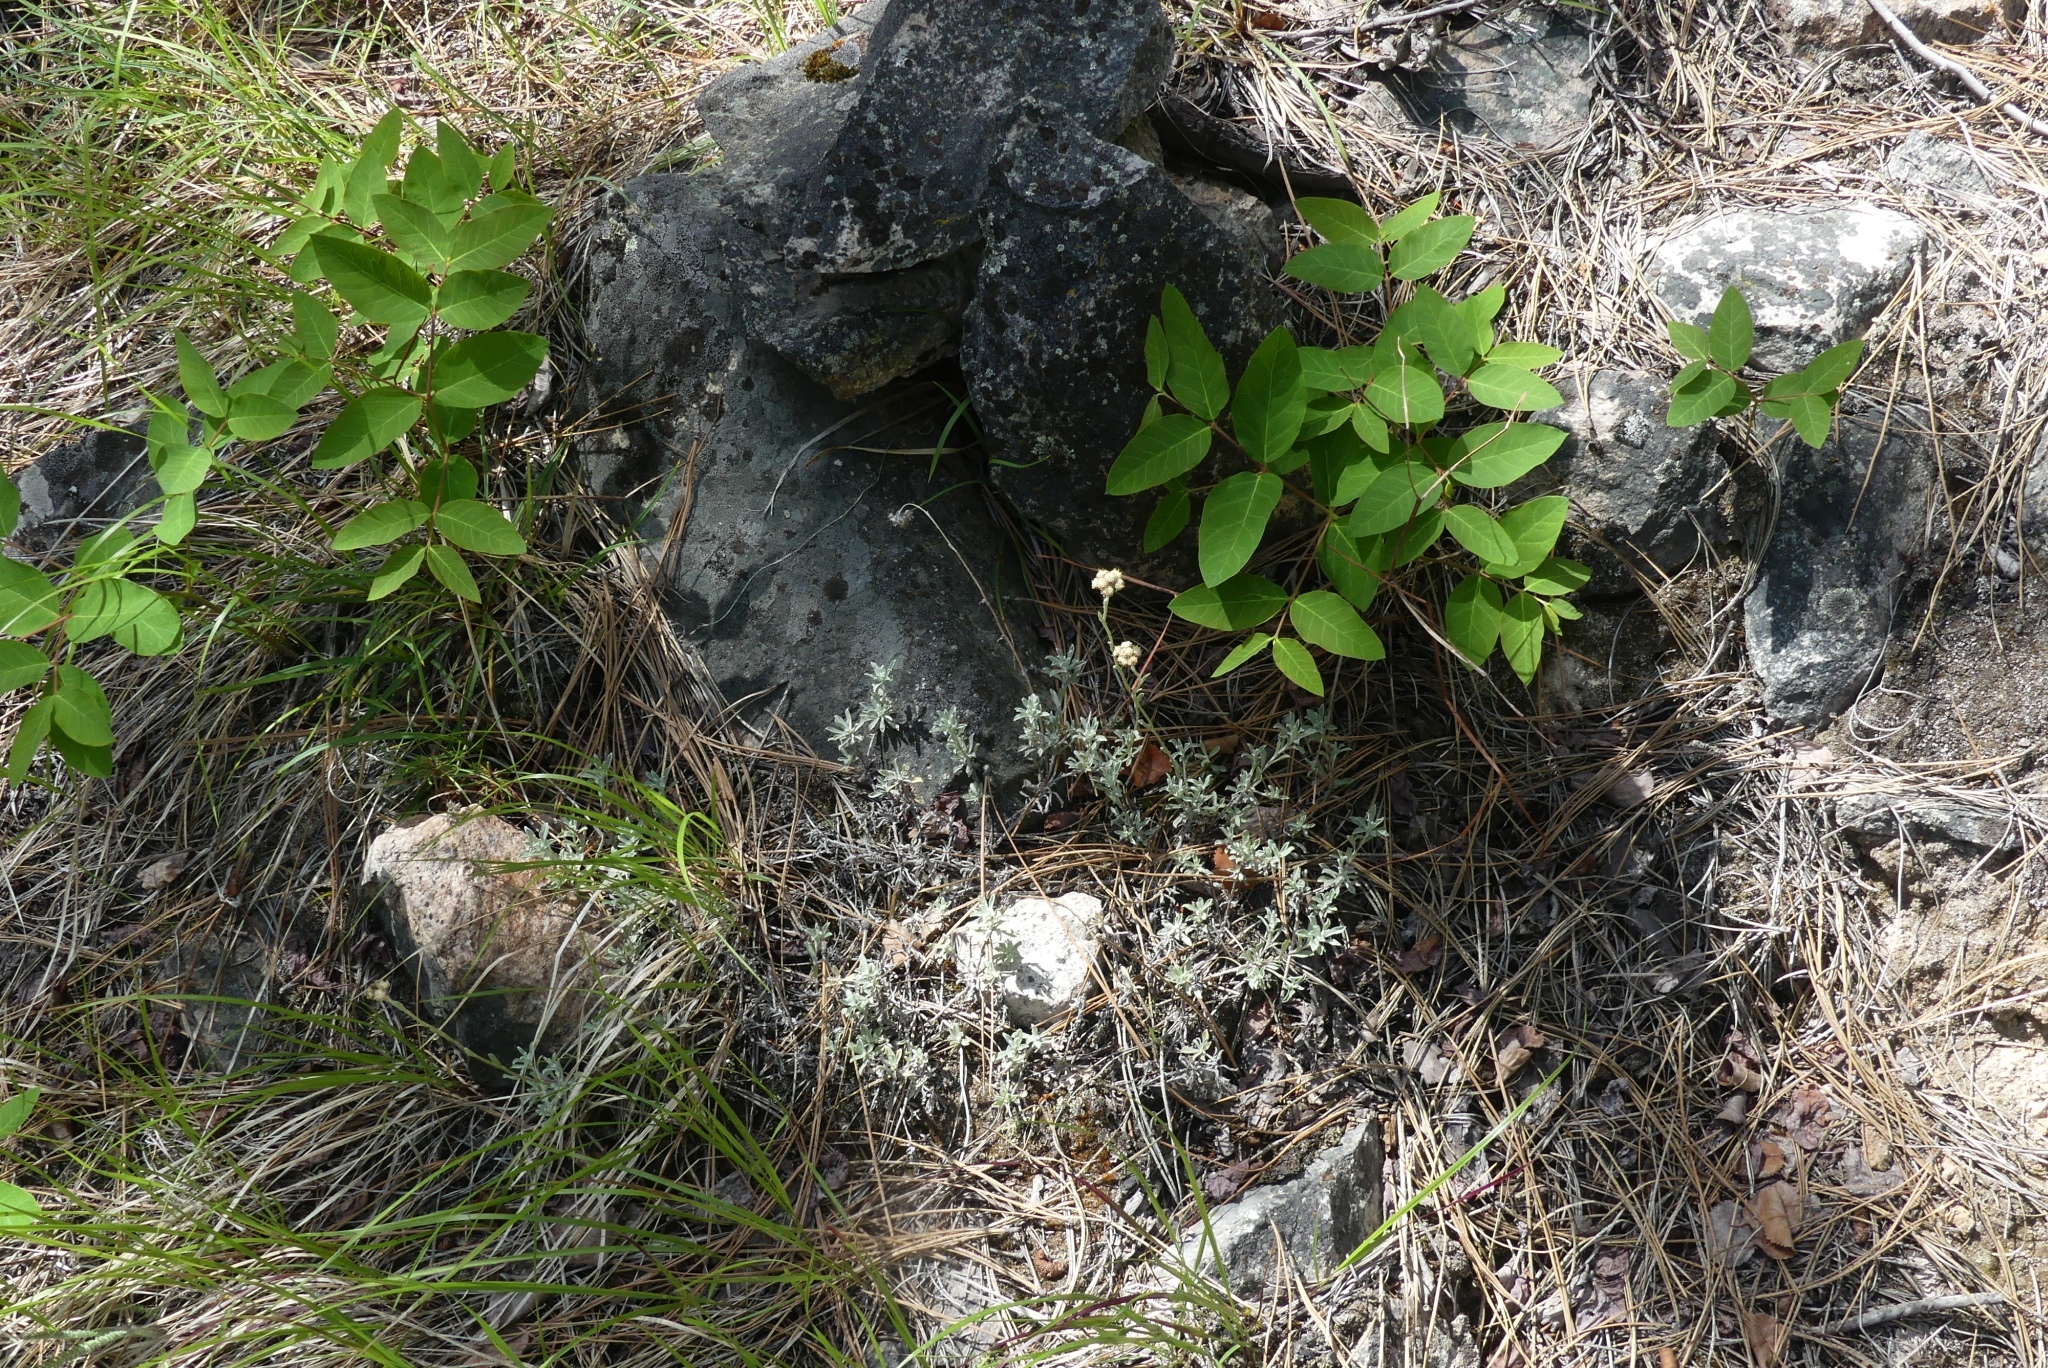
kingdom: Plantae
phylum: Tracheophyta
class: Magnoliopsida
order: Asterales
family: Asteraceae
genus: Antennaria
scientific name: Antennaria umbrinella
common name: Brown pussytoes
